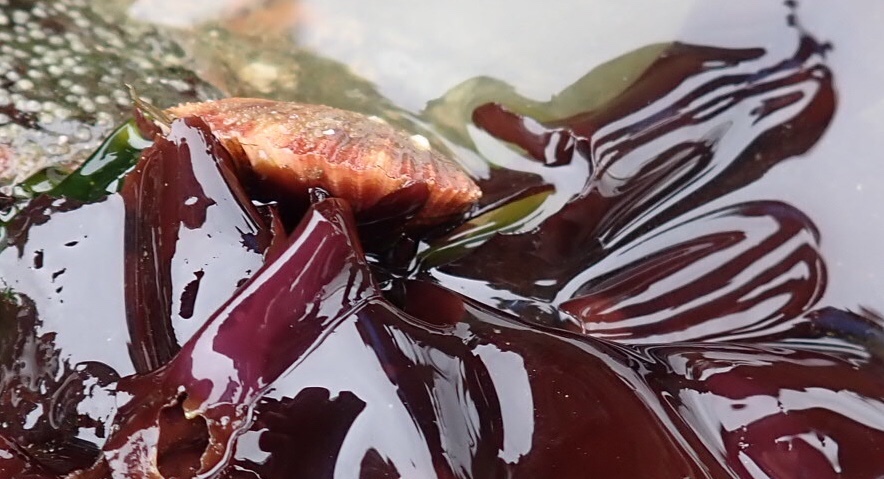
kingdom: Animalia
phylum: Mollusca
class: Bivalvia
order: Pectinida
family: Pectinidae
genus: Chlamys
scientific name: Chlamys hastata
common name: Spear scallop
